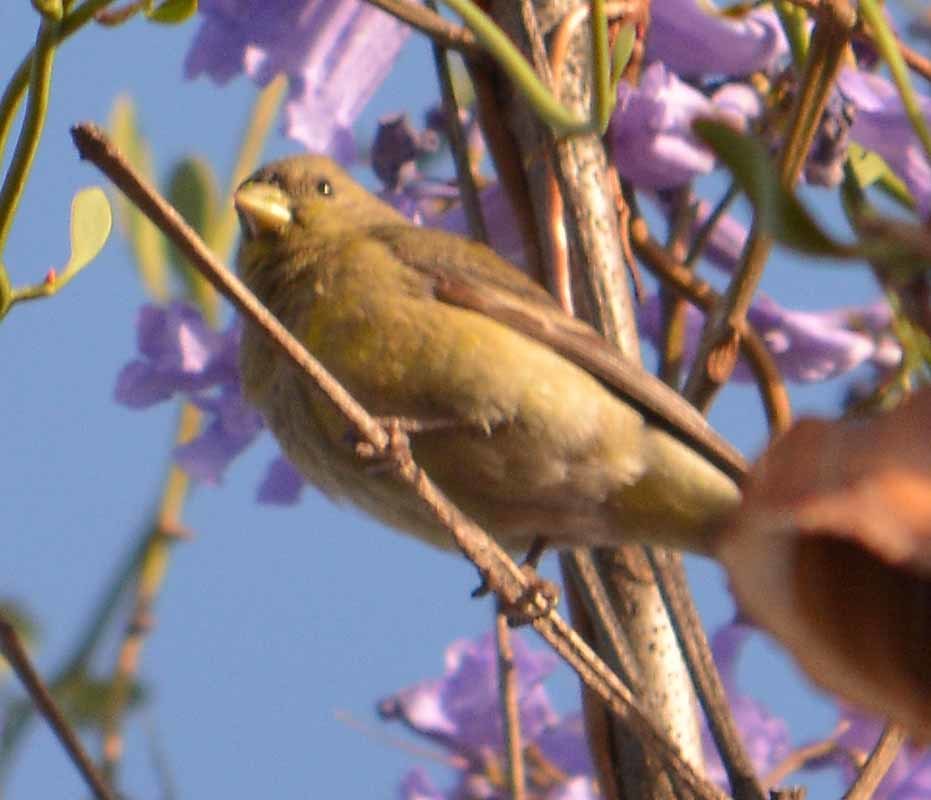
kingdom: Animalia
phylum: Chordata
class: Aves
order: Passeriformes
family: Fringillidae
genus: Spinus
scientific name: Spinus psaltria
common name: Lesser goldfinch
